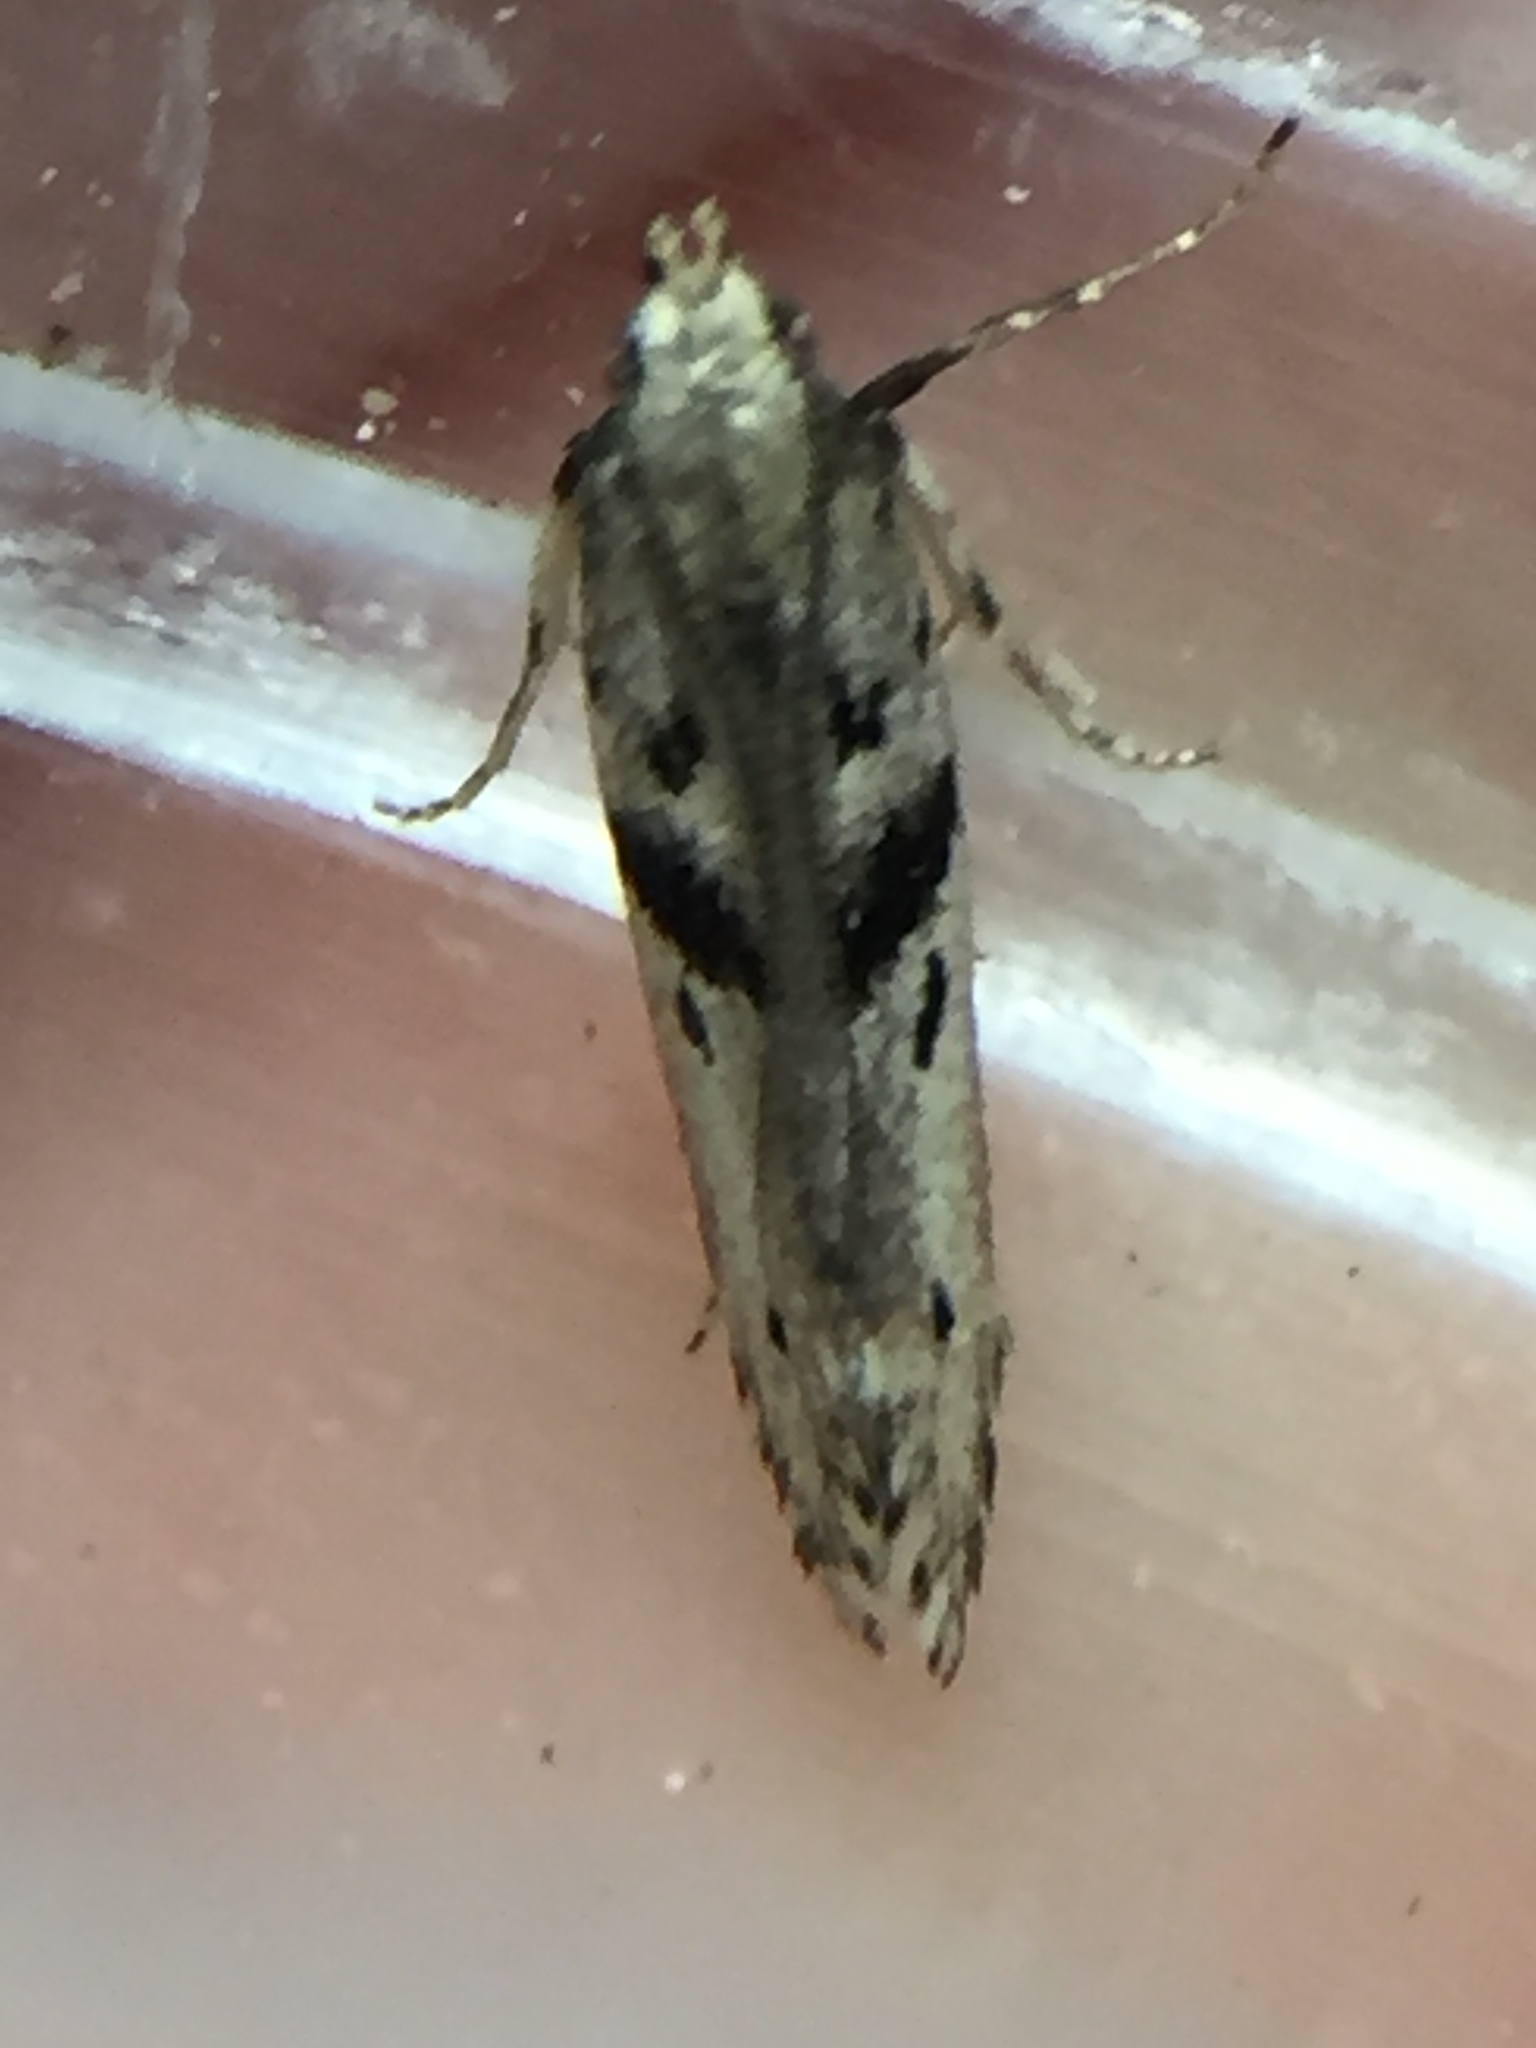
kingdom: Animalia
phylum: Arthropoda
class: Insecta
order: Lepidoptera
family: Gelechiidae
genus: Aristotelia
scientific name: Aristotelia paradesma
